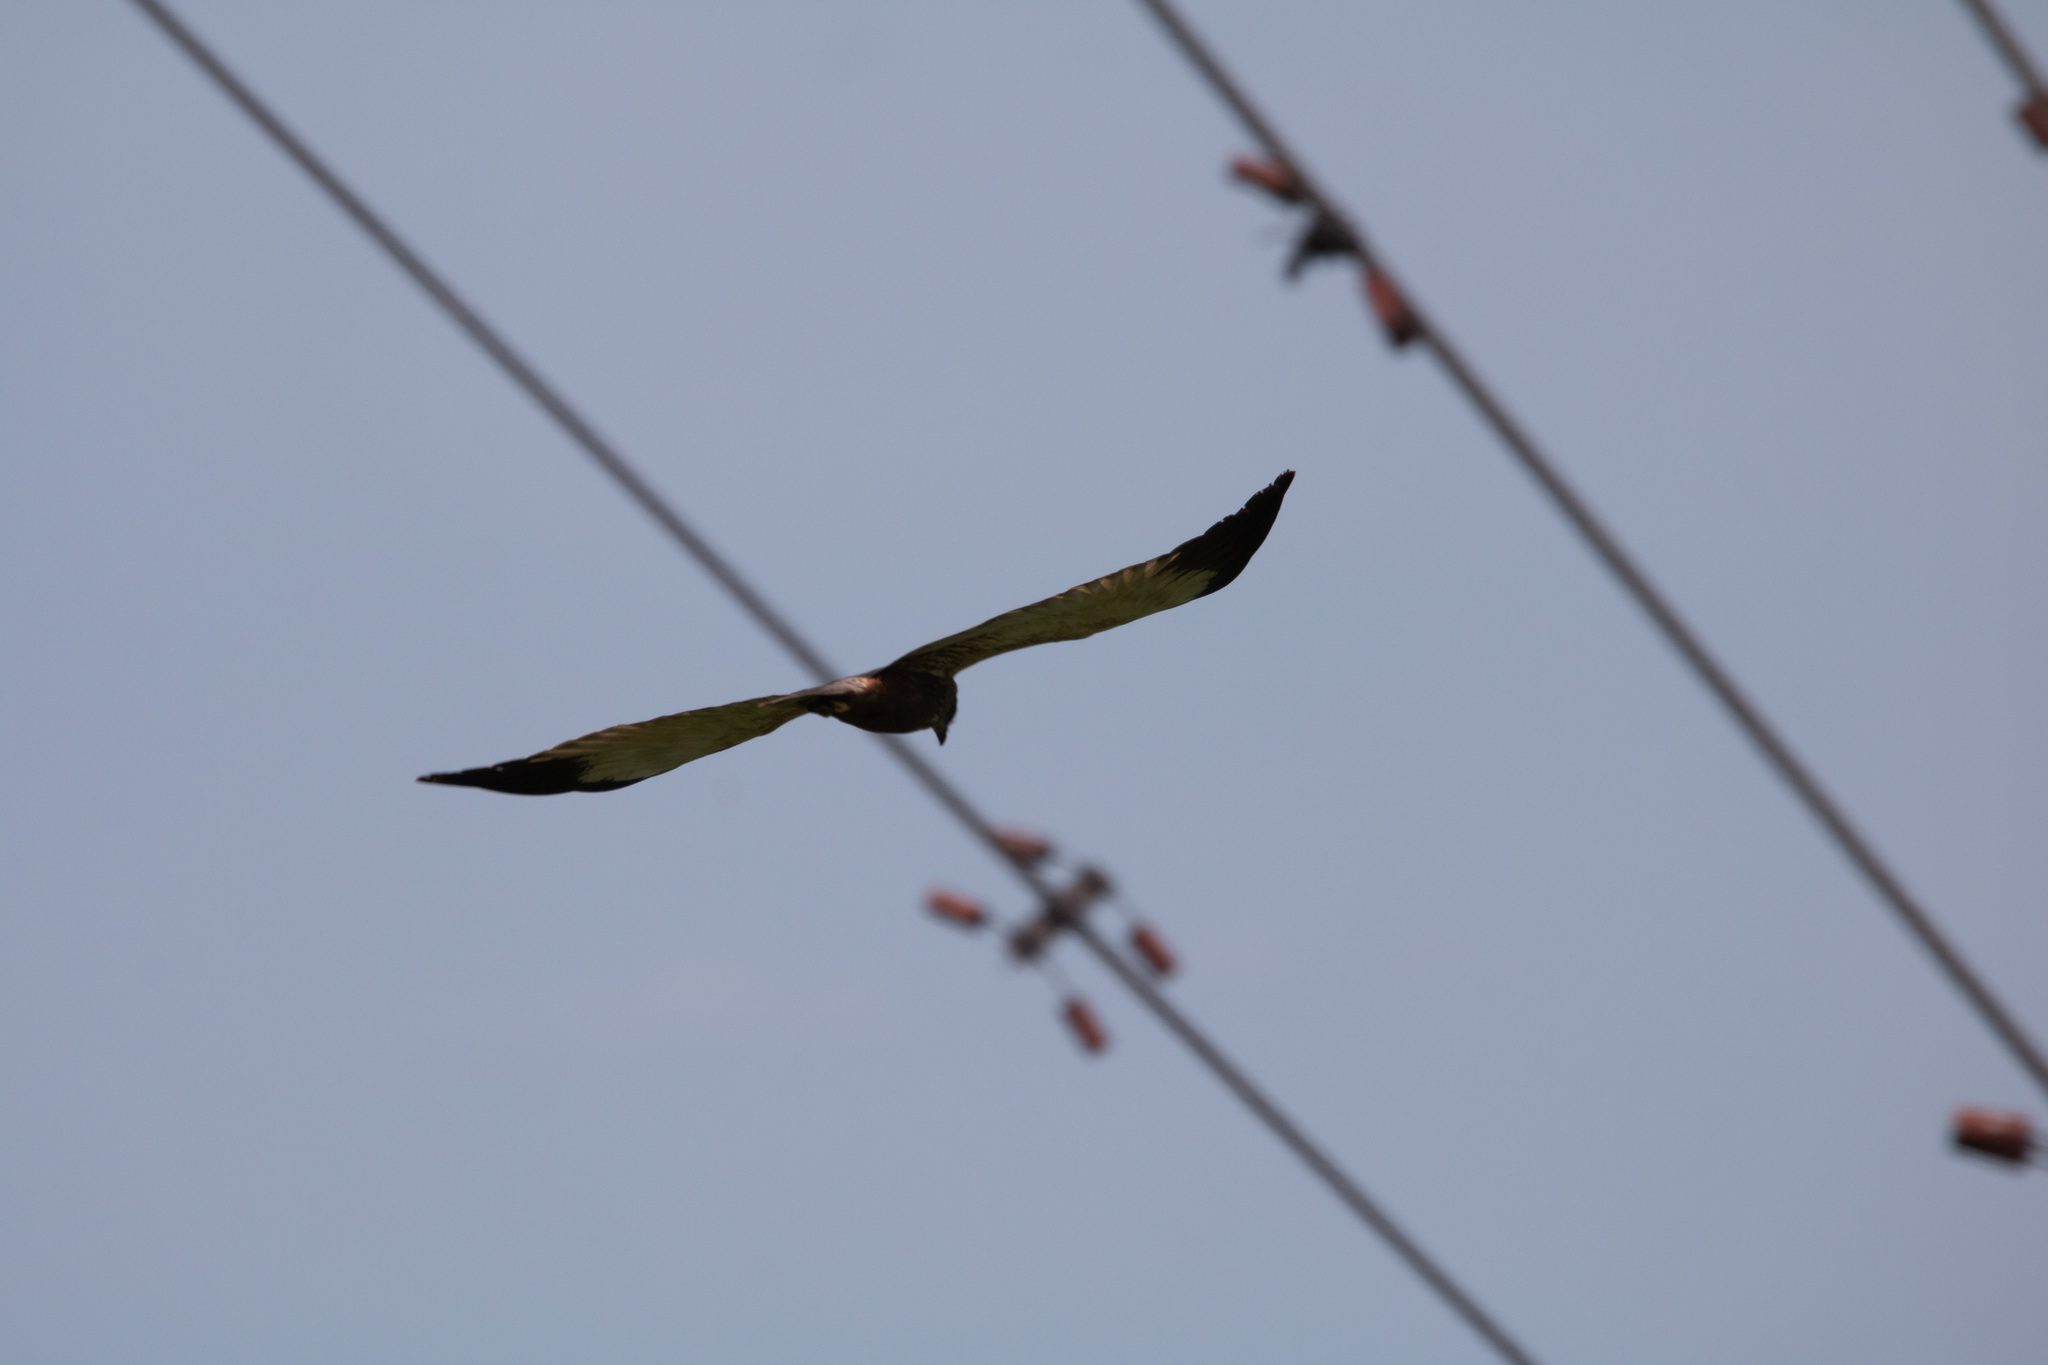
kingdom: Animalia
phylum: Chordata
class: Aves
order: Accipitriformes
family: Accipitridae
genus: Circus
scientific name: Circus aeruginosus
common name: Western marsh harrier
